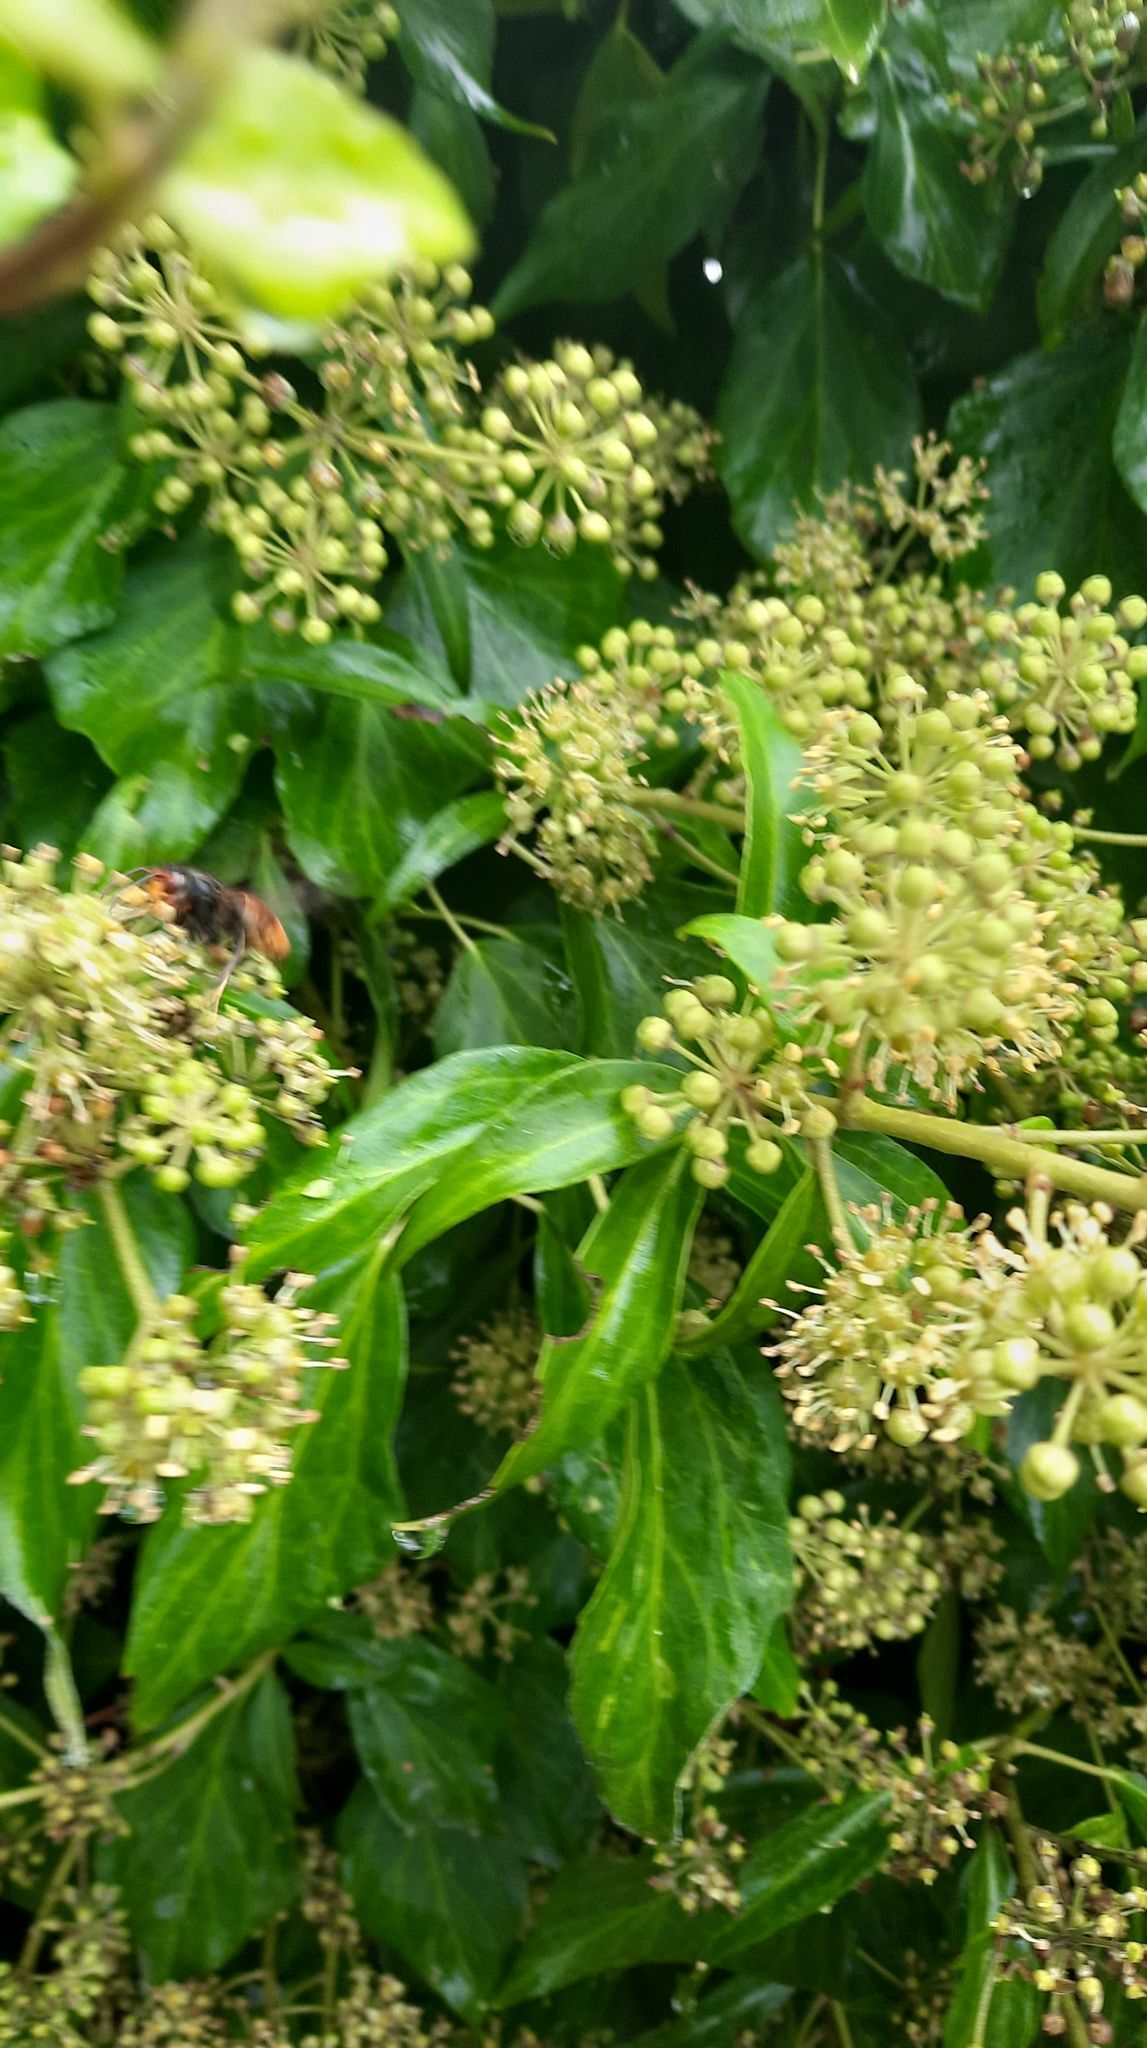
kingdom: Animalia
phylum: Arthropoda
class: Insecta
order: Hymenoptera
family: Vespidae
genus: Vespa
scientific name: Vespa velutina
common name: Asian hornet
